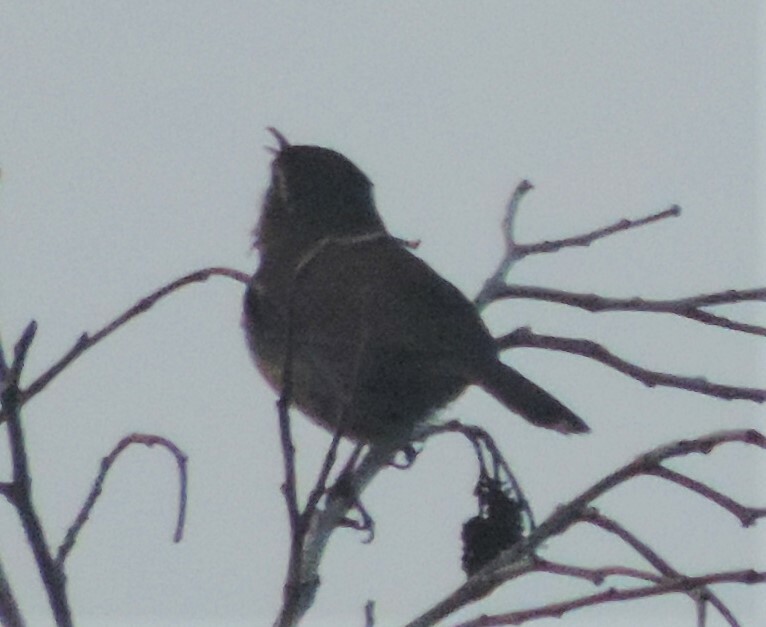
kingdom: Animalia
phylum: Chordata
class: Aves
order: Passeriformes
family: Troglodytidae
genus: Thryomanes
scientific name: Thryomanes bewickii
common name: Bewick's wren
